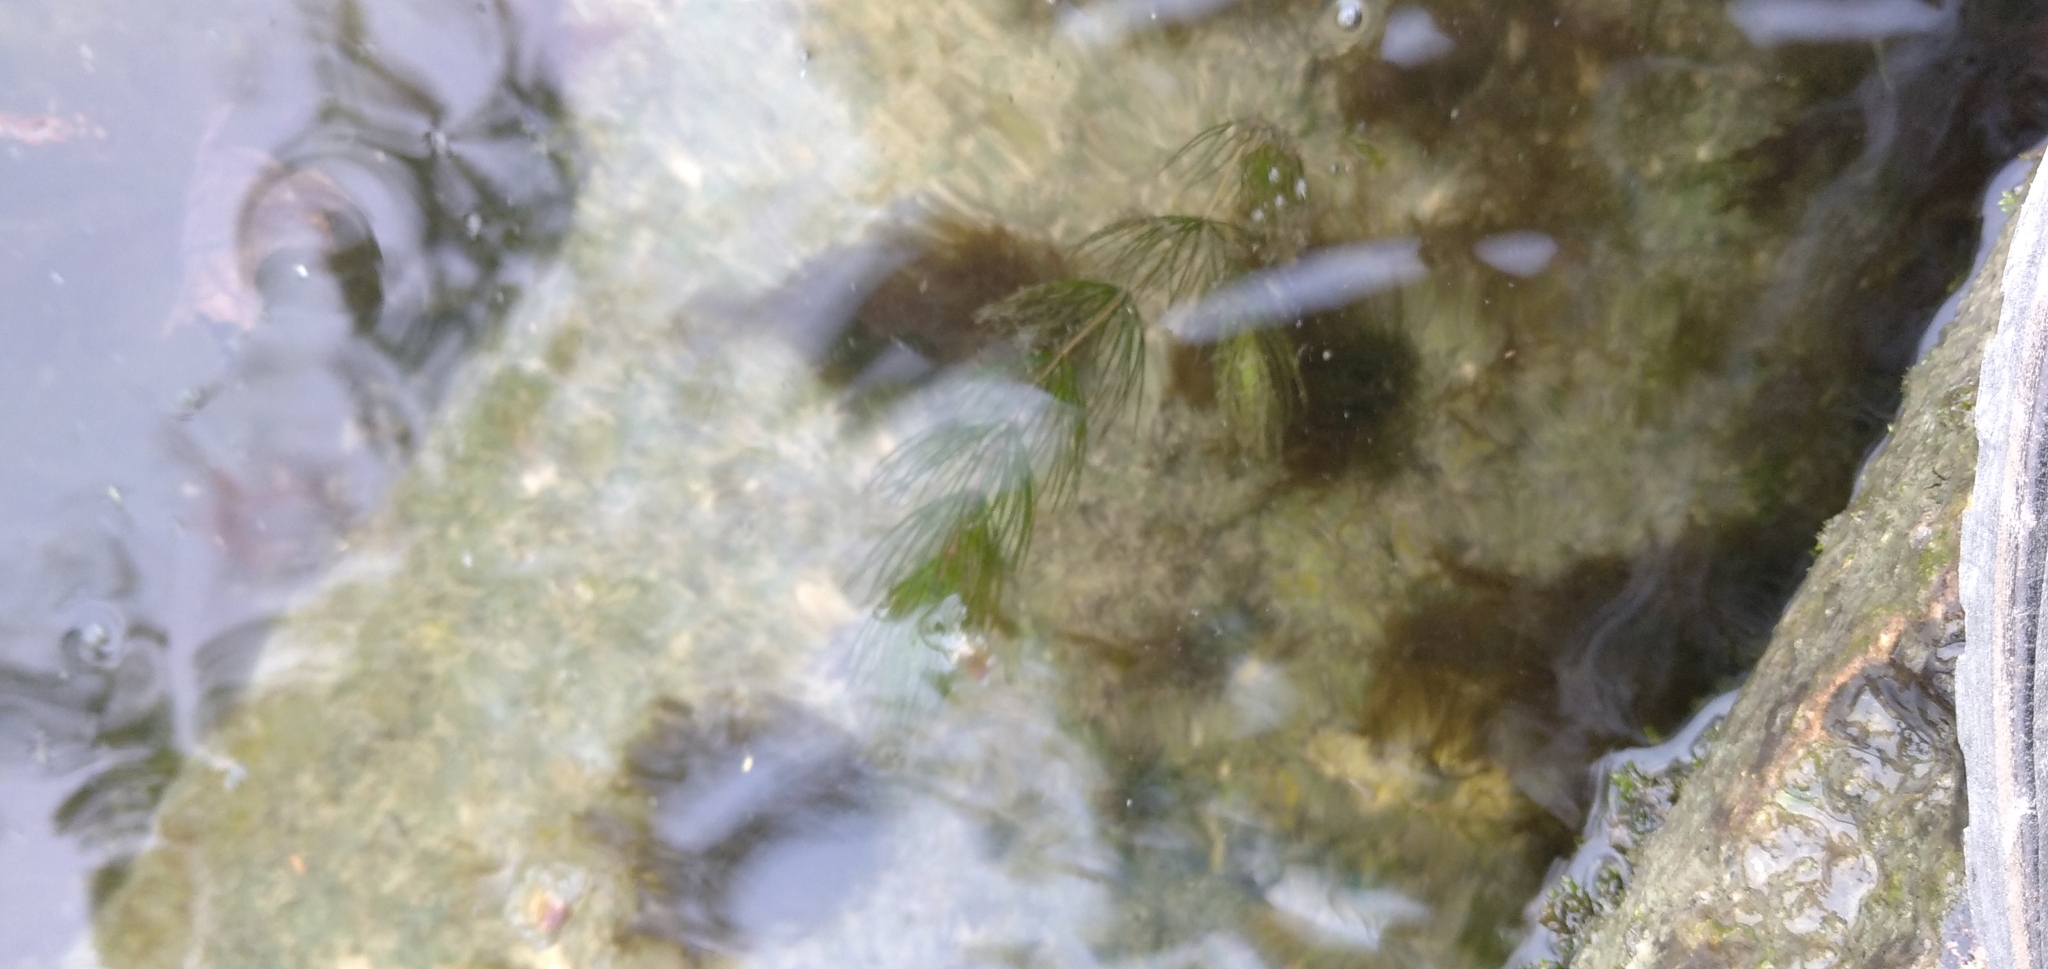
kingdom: Plantae
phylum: Tracheophyta
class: Magnoliopsida
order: Ceratophyllales
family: Ceratophyllaceae
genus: Ceratophyllum
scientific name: Ceratophyllum demersum
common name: Rigid hornwort
